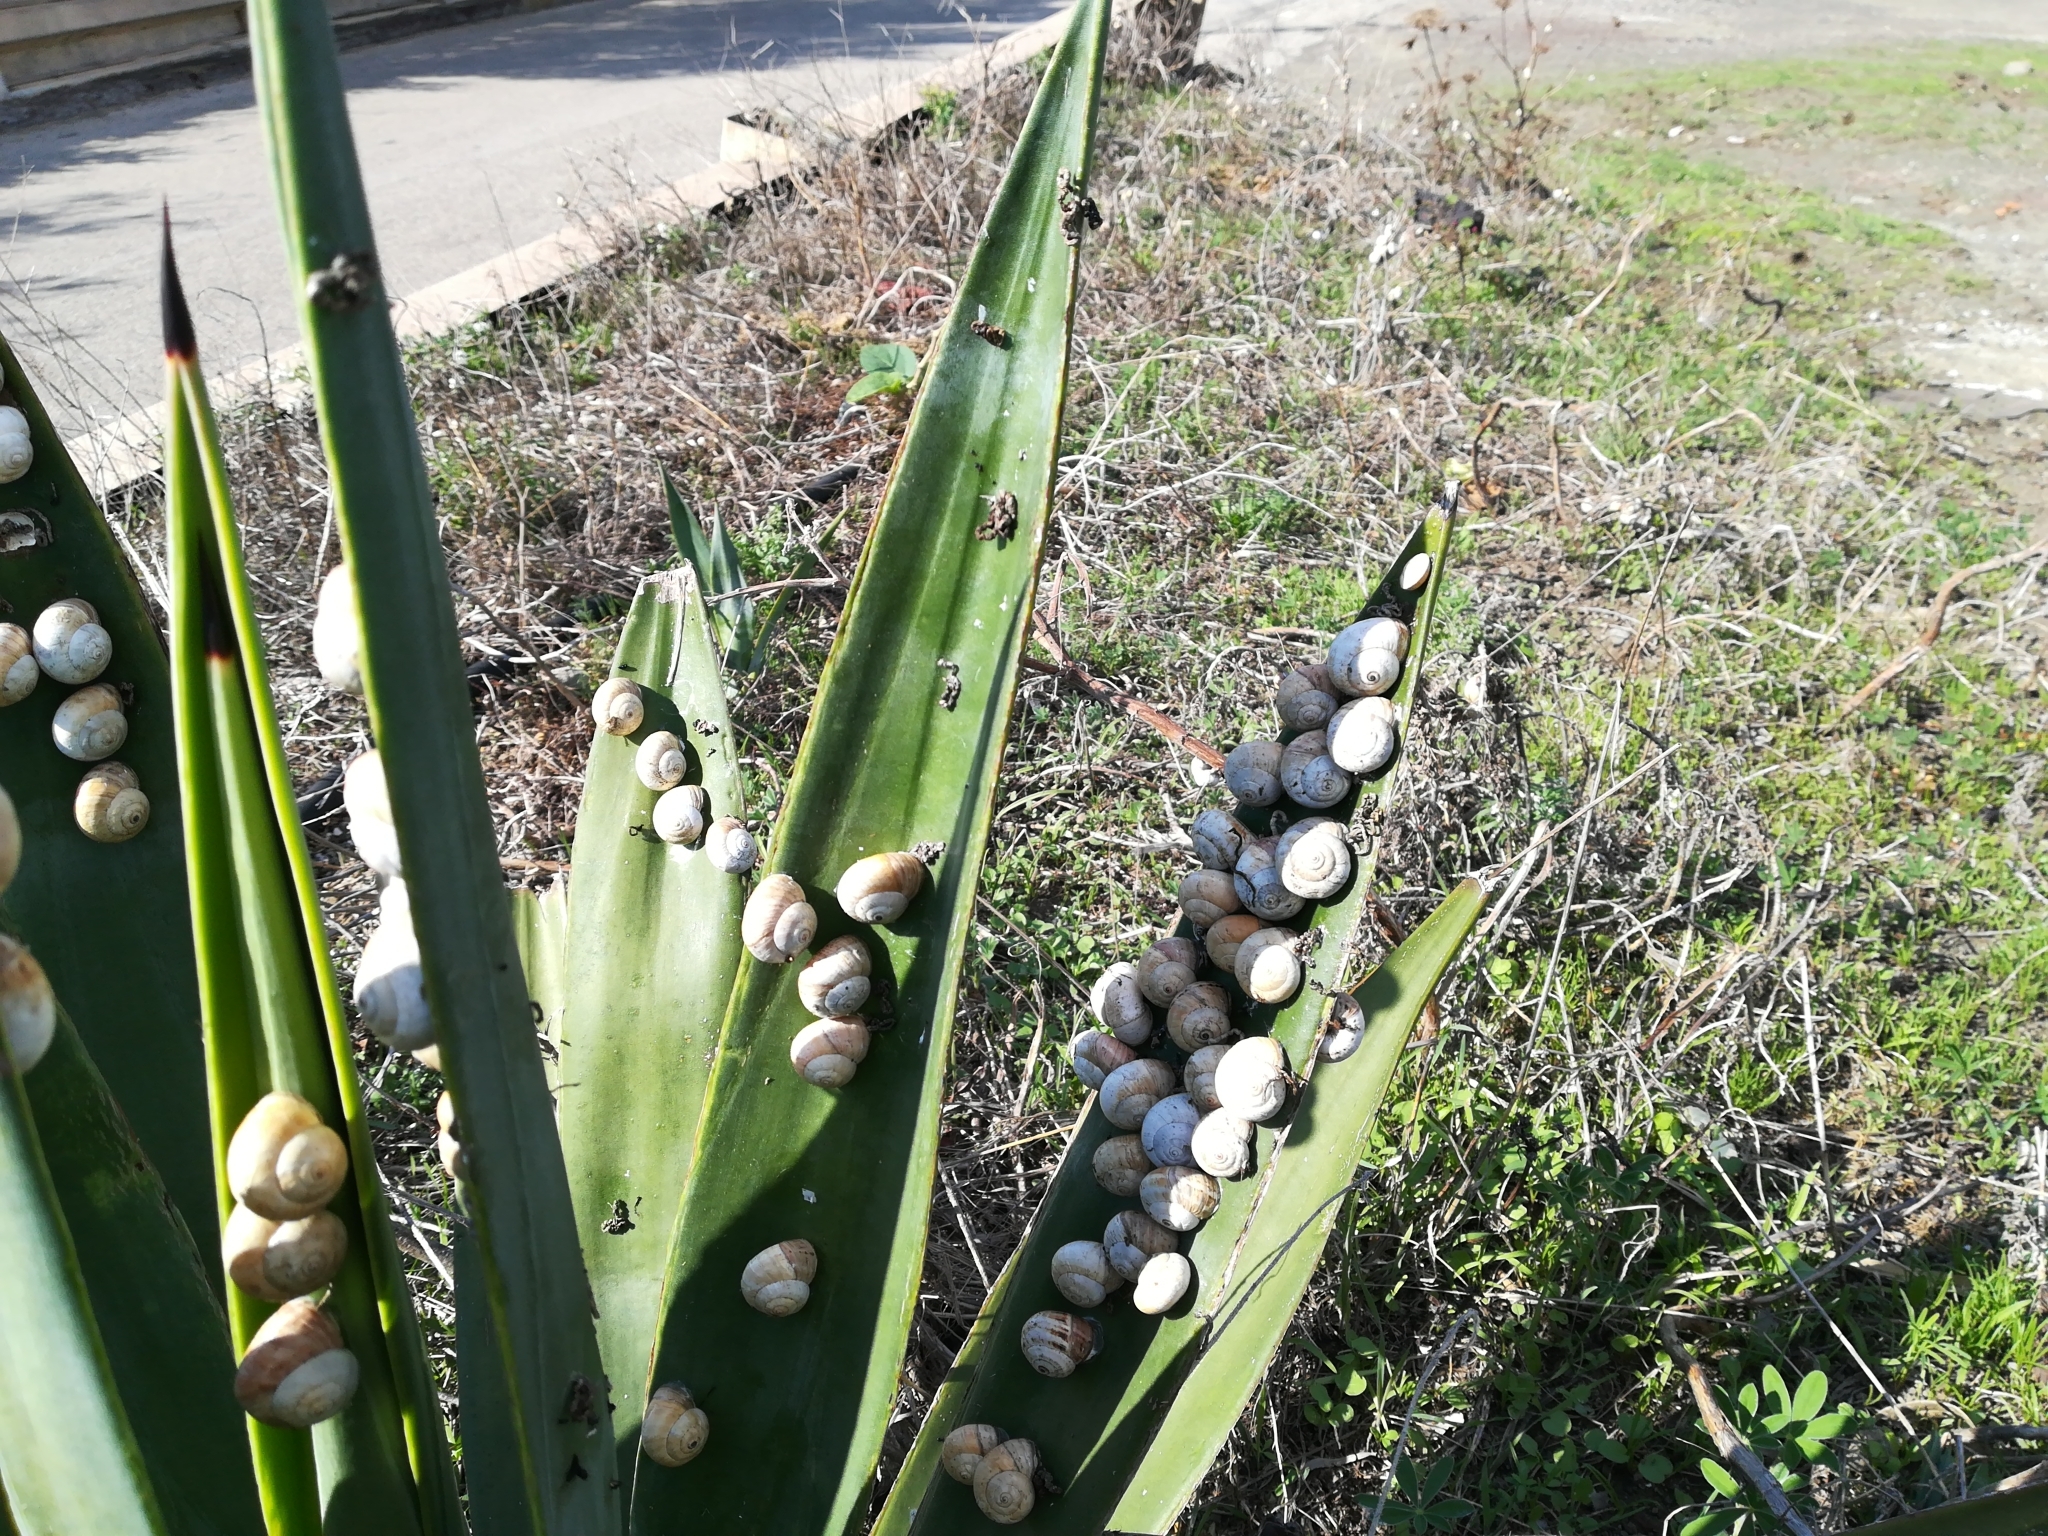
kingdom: Animalia
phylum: Mollusca
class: Gastropoda
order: Stylommatophora
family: Helicidae
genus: Theba
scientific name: Theba pisana
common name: White snail
